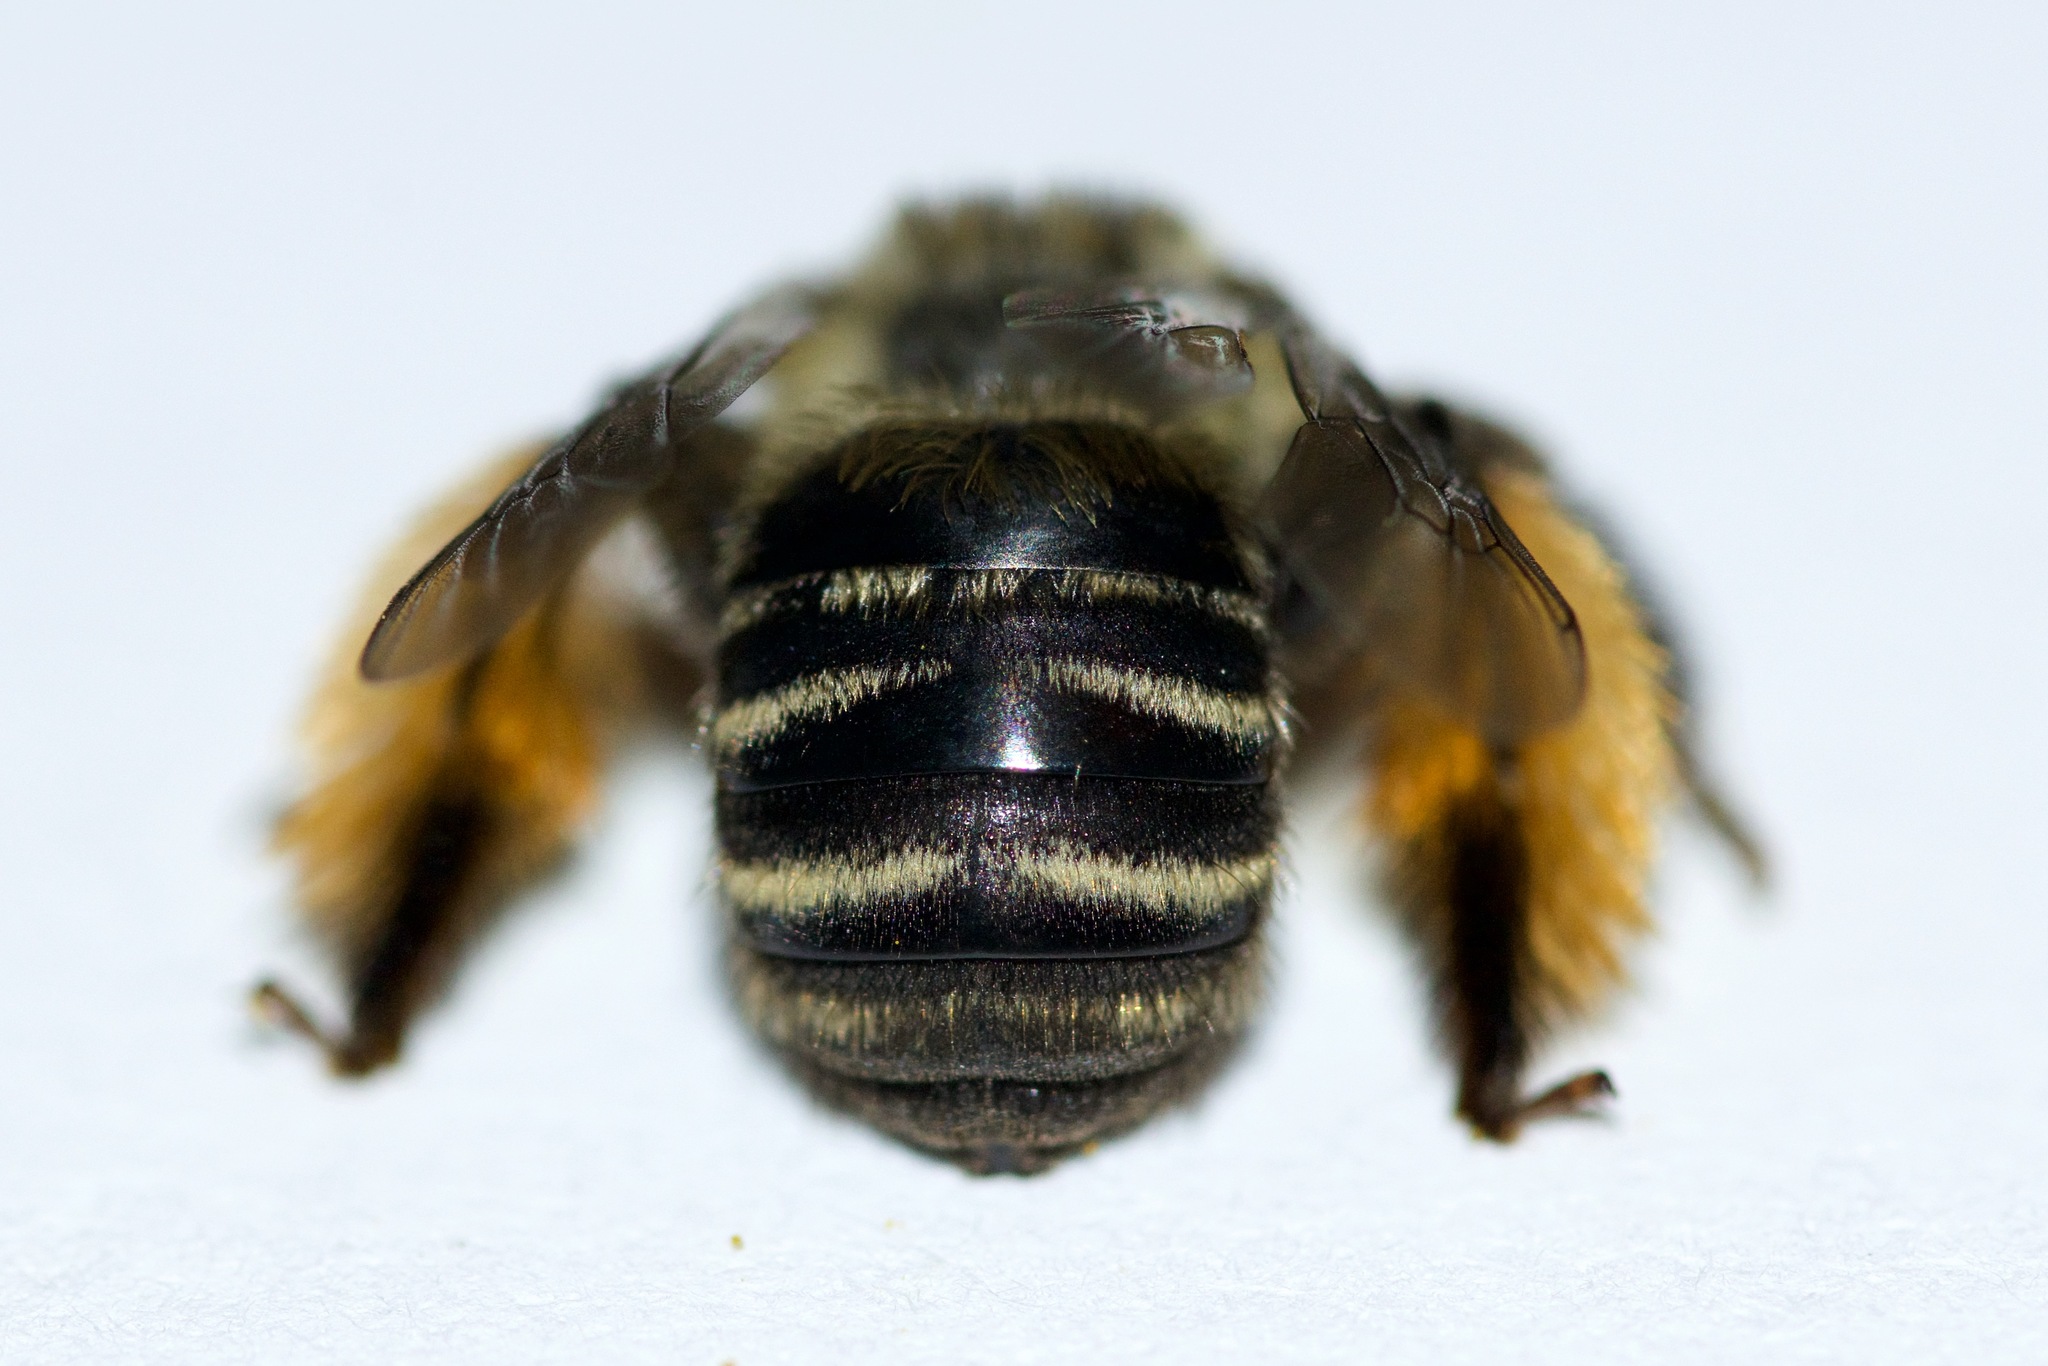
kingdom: Animalia
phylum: Arthropoda
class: Insecta
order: Hymenoptera
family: Apidae
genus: Melissodes
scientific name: Melissodes druriellus
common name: Drury's long-horned bee
